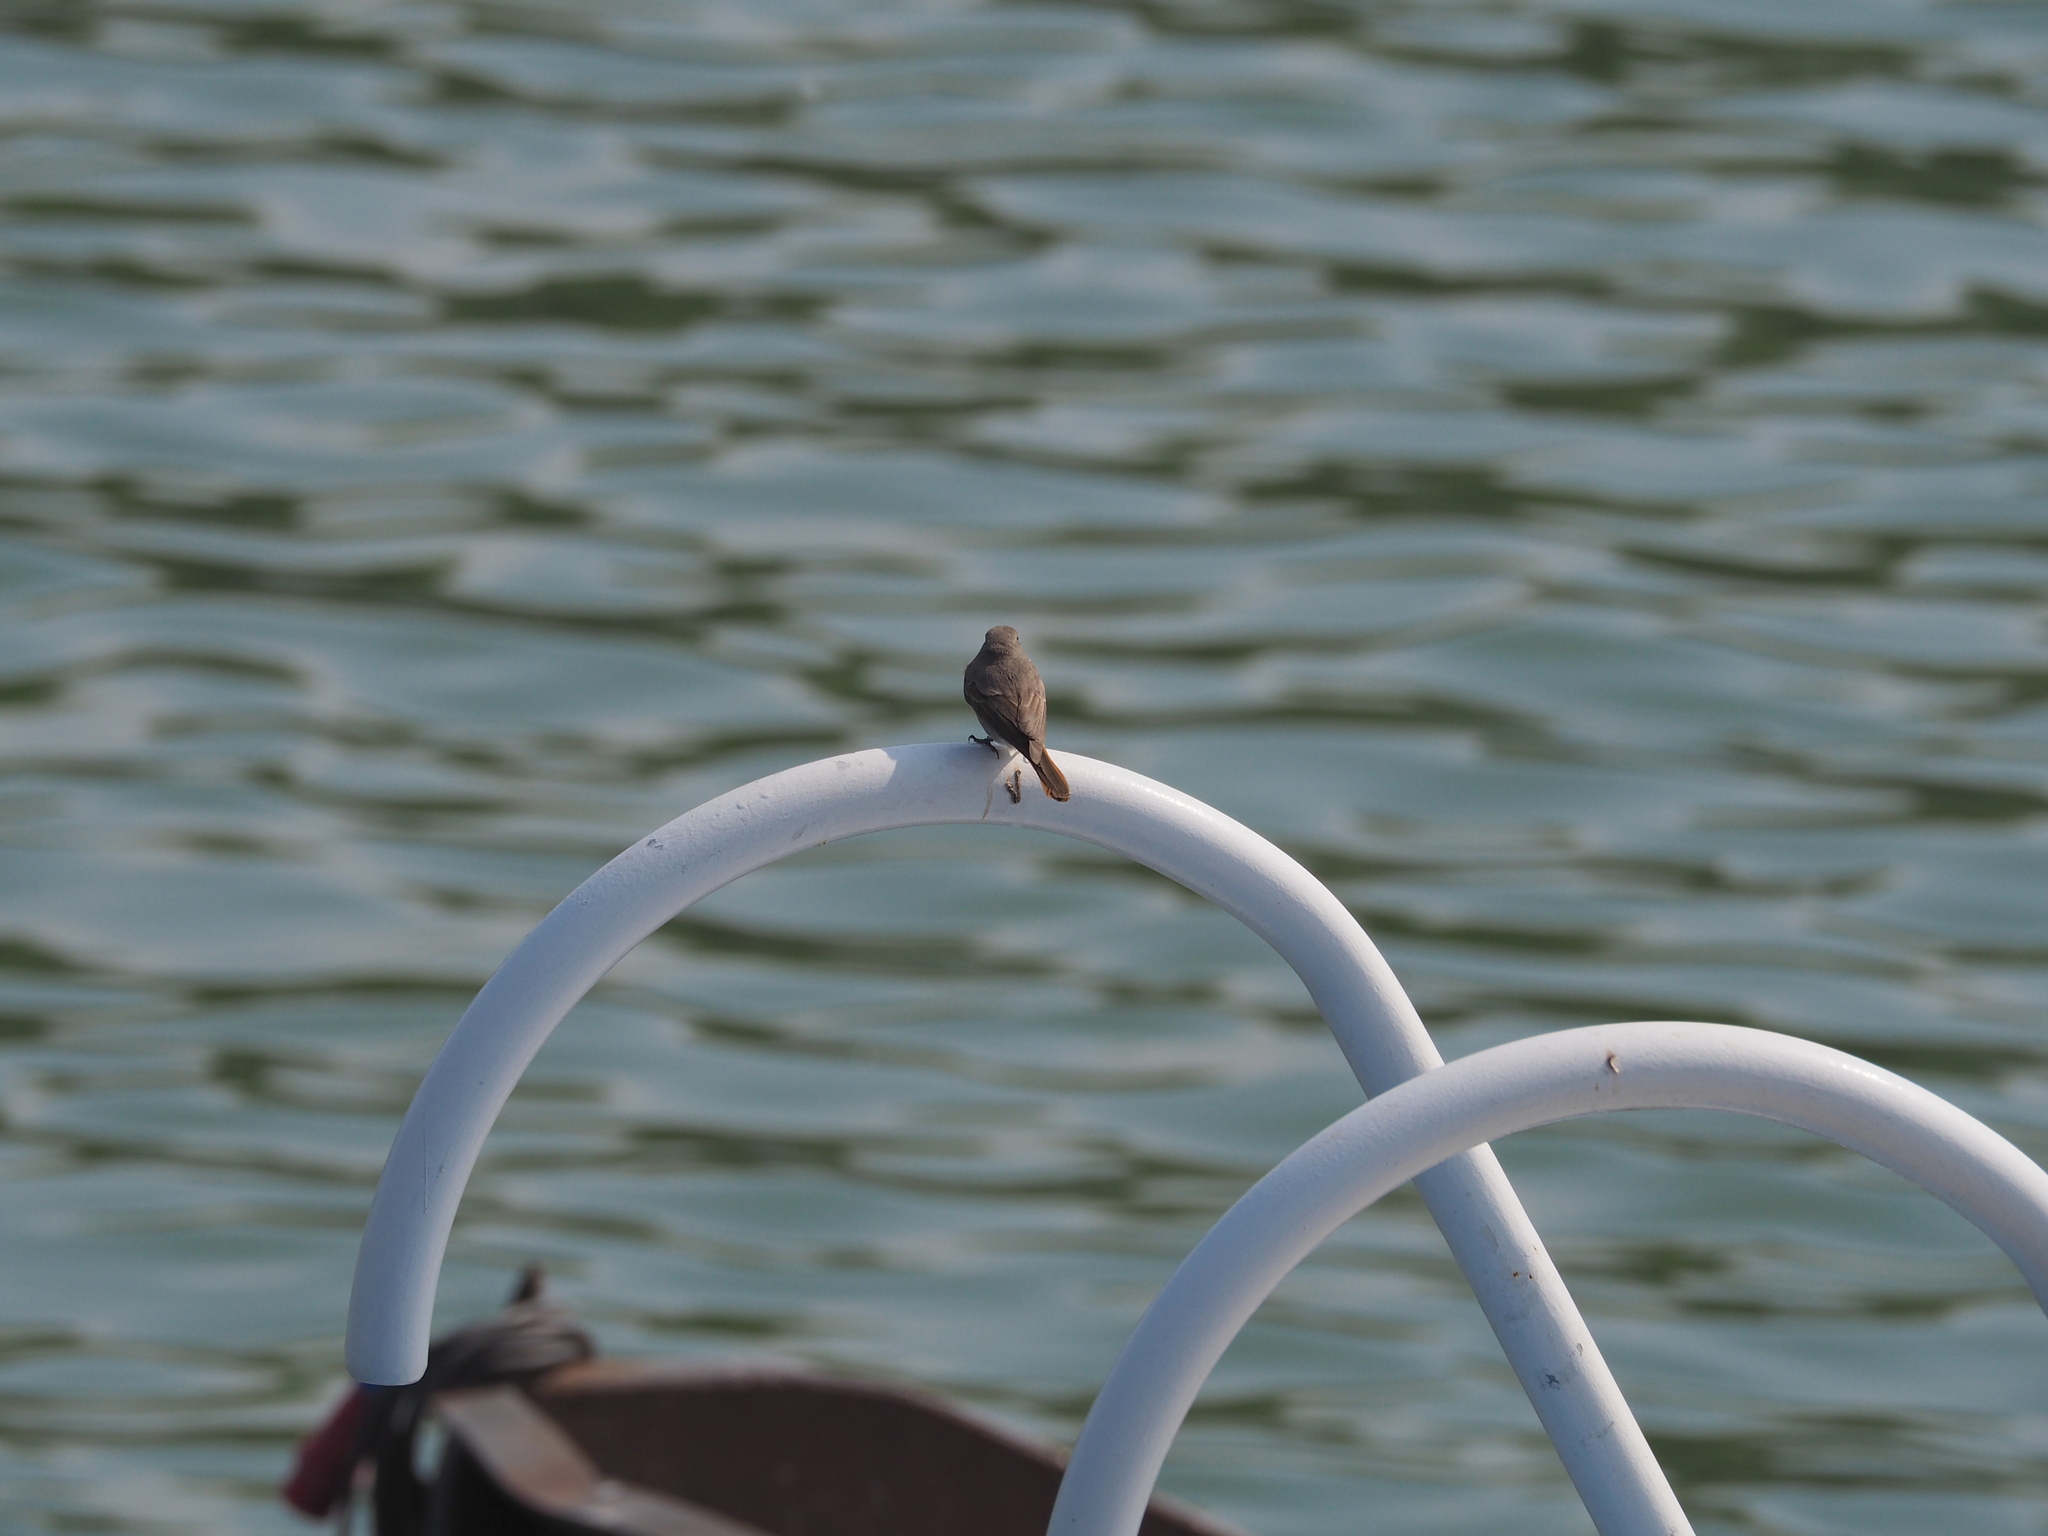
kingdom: Animalia
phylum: Chordata
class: Aves
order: Passeriformes
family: Muscicapidae
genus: Phoenicurus
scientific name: Phoenicurus ochruros
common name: Black redstart
